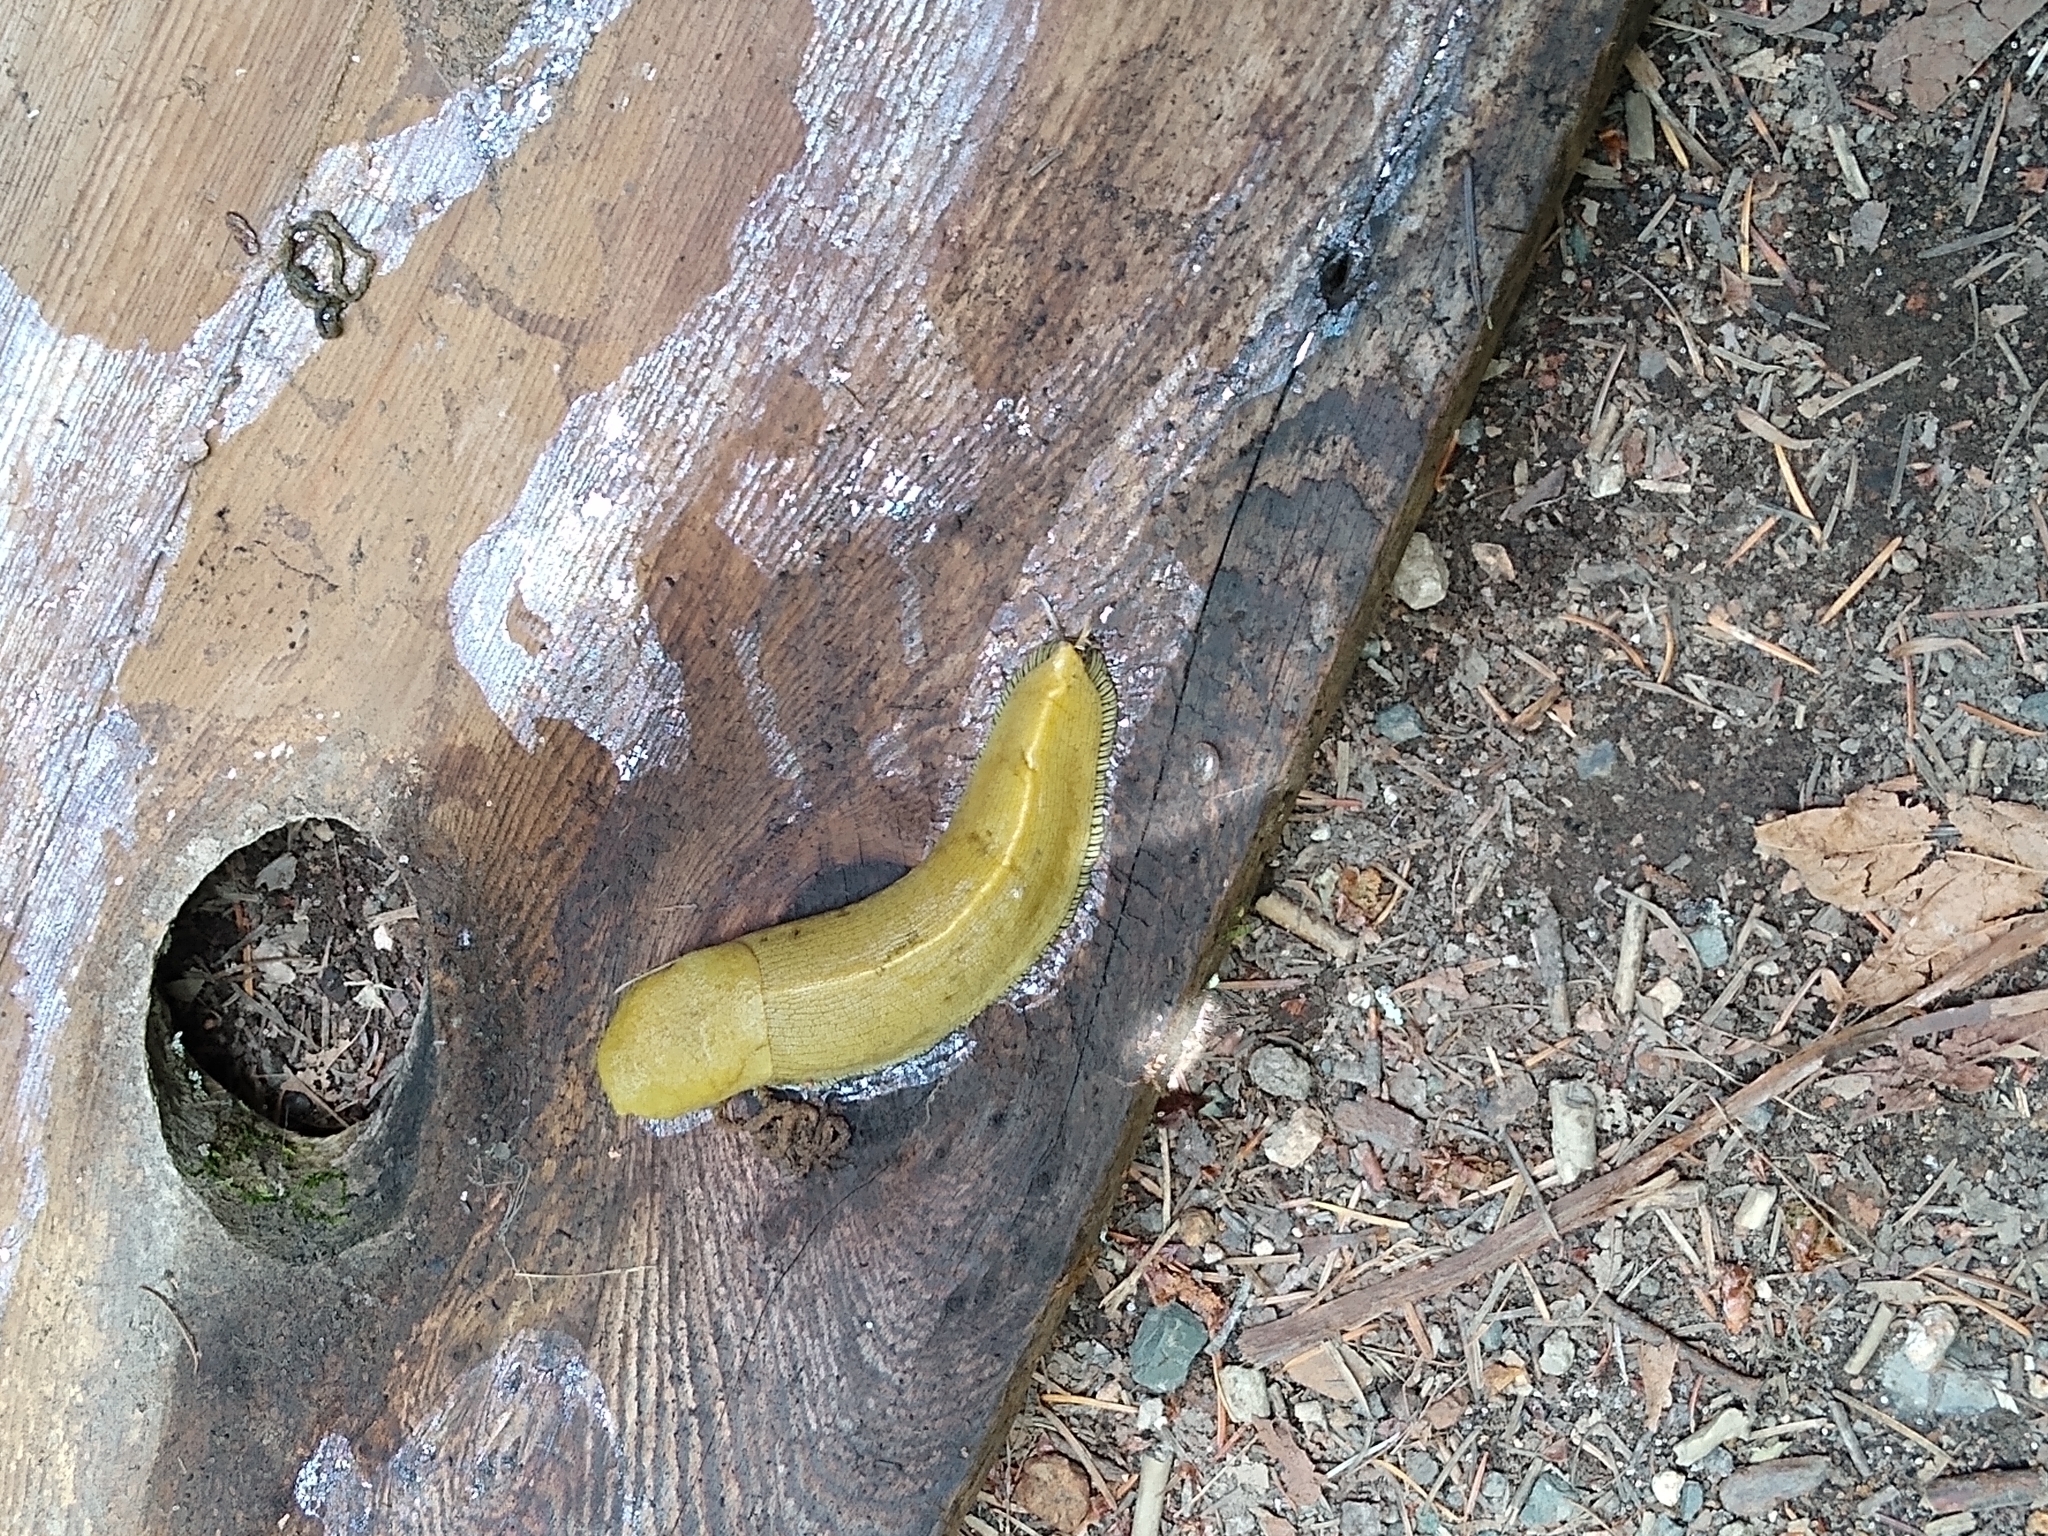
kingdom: Animalia
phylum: Mollusca
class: Gastropoda
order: Stylommatophora
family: Ariolimacidae
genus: Ariolimax
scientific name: Ariolimax buttoni
